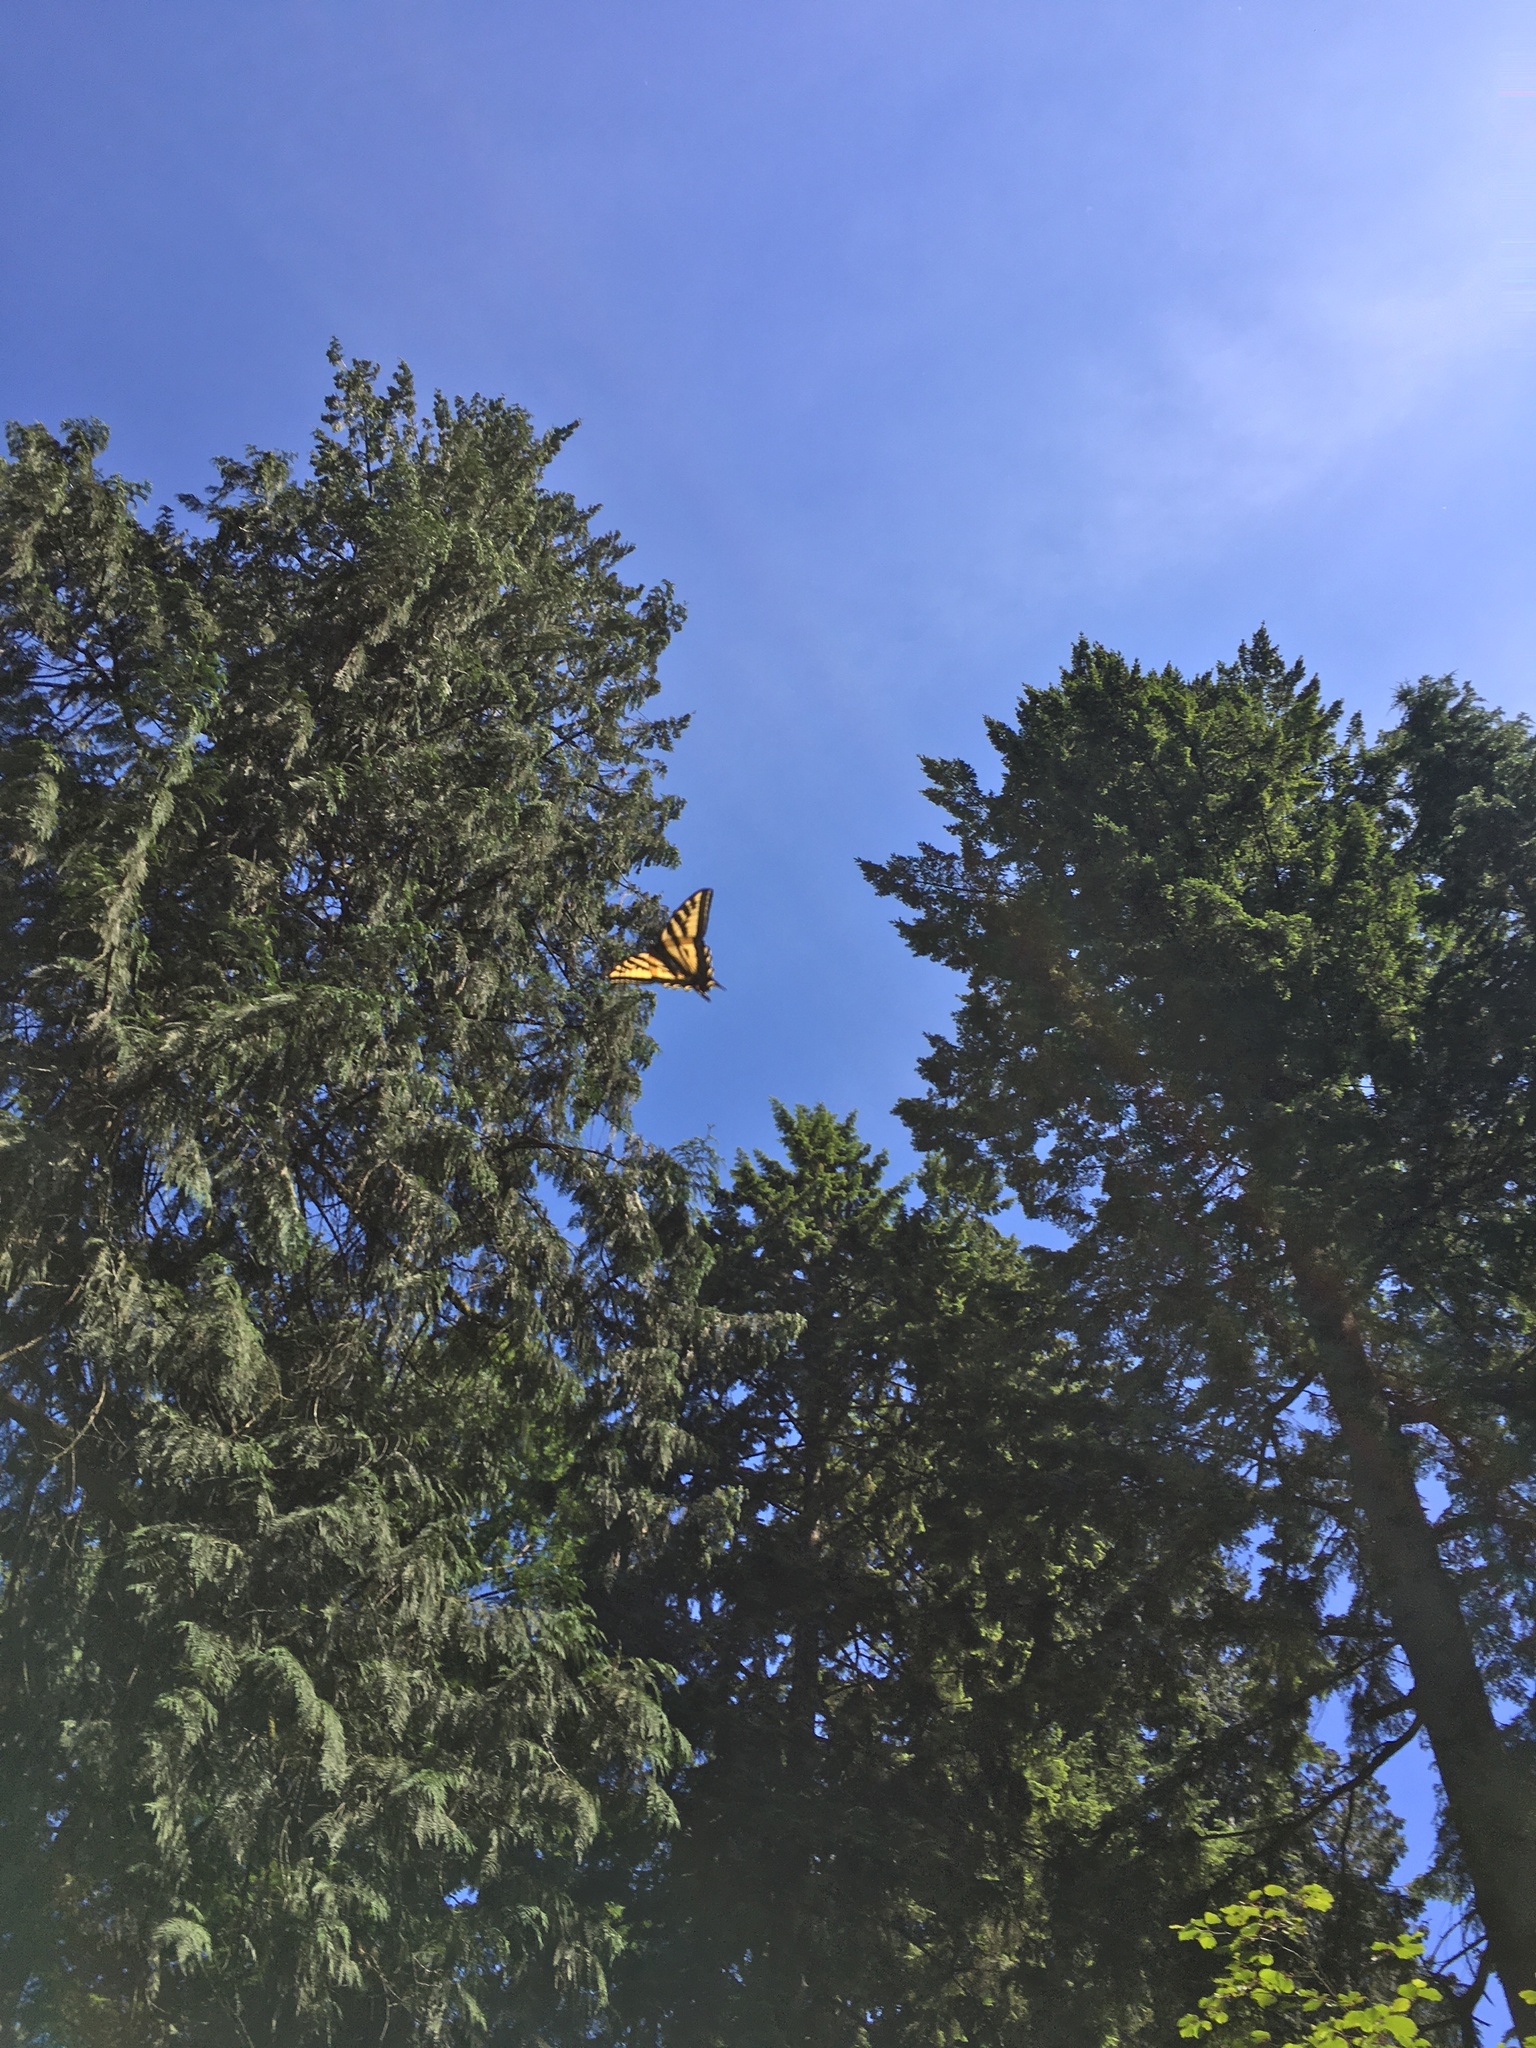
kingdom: Animalia
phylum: Arthropoda
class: Insecta
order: Lepidoptera
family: Papilionidae
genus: Papilio
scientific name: Papilio rutulus
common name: Western tiger swallowtail
